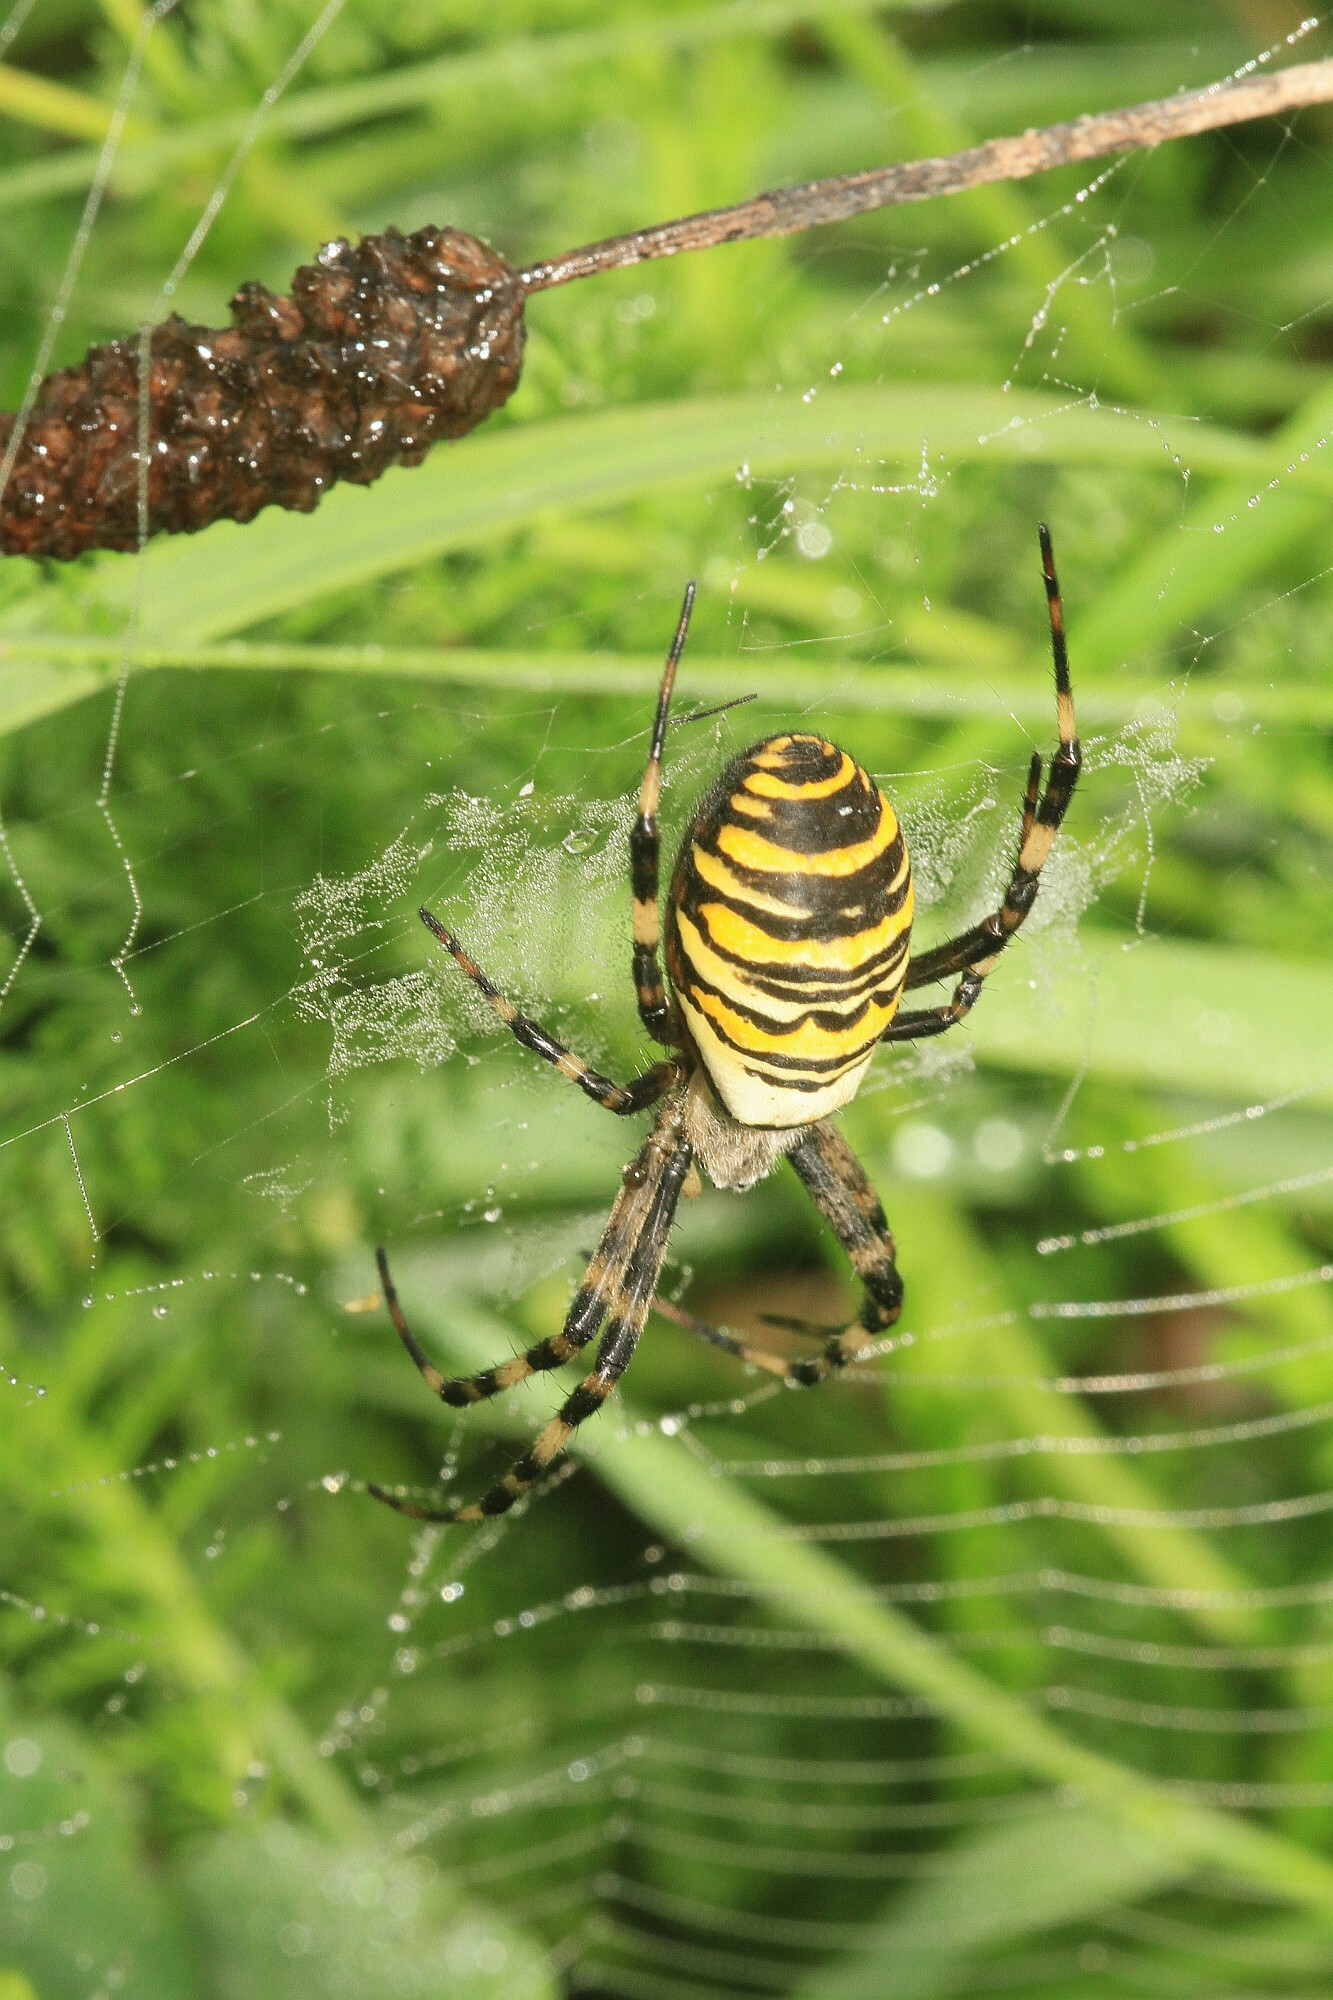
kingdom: Animalia
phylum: Arthropoda
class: Arachnida
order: Araneae
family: Araneidae
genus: Argiope
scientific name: Argiope bruennichi
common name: Wasp spider
